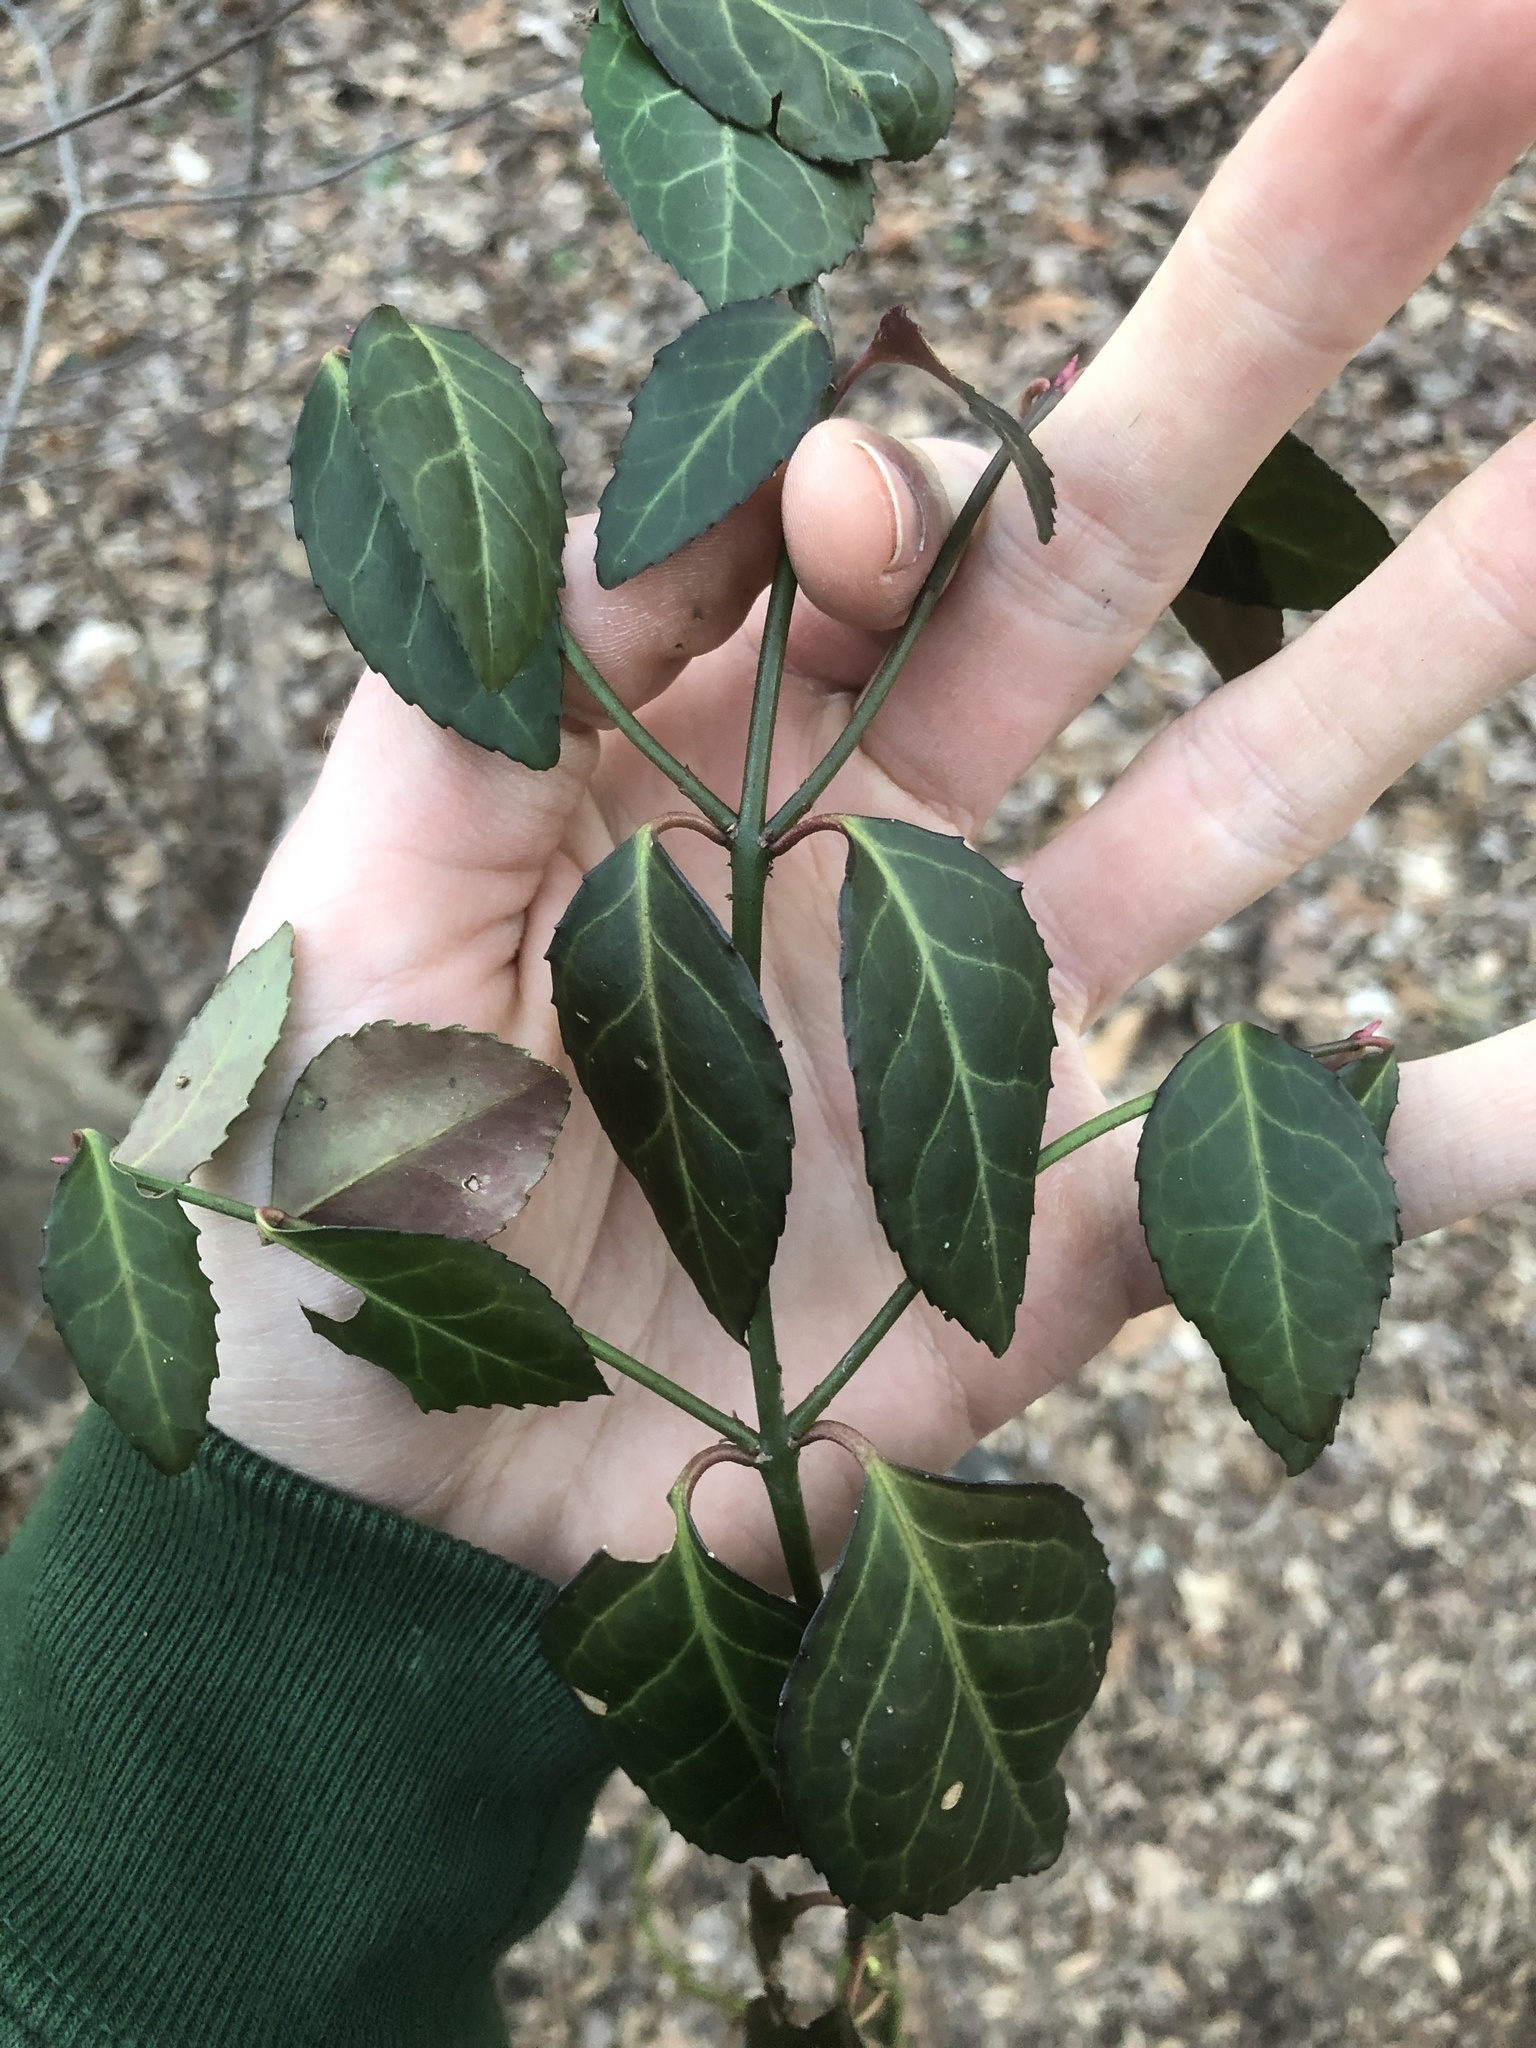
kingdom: Plantae
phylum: Tracheophyta
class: Magnoliopsida
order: Celastrales
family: Celastraceae
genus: Euonymus
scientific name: Euonymus fortunei
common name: Climbing euonymus
